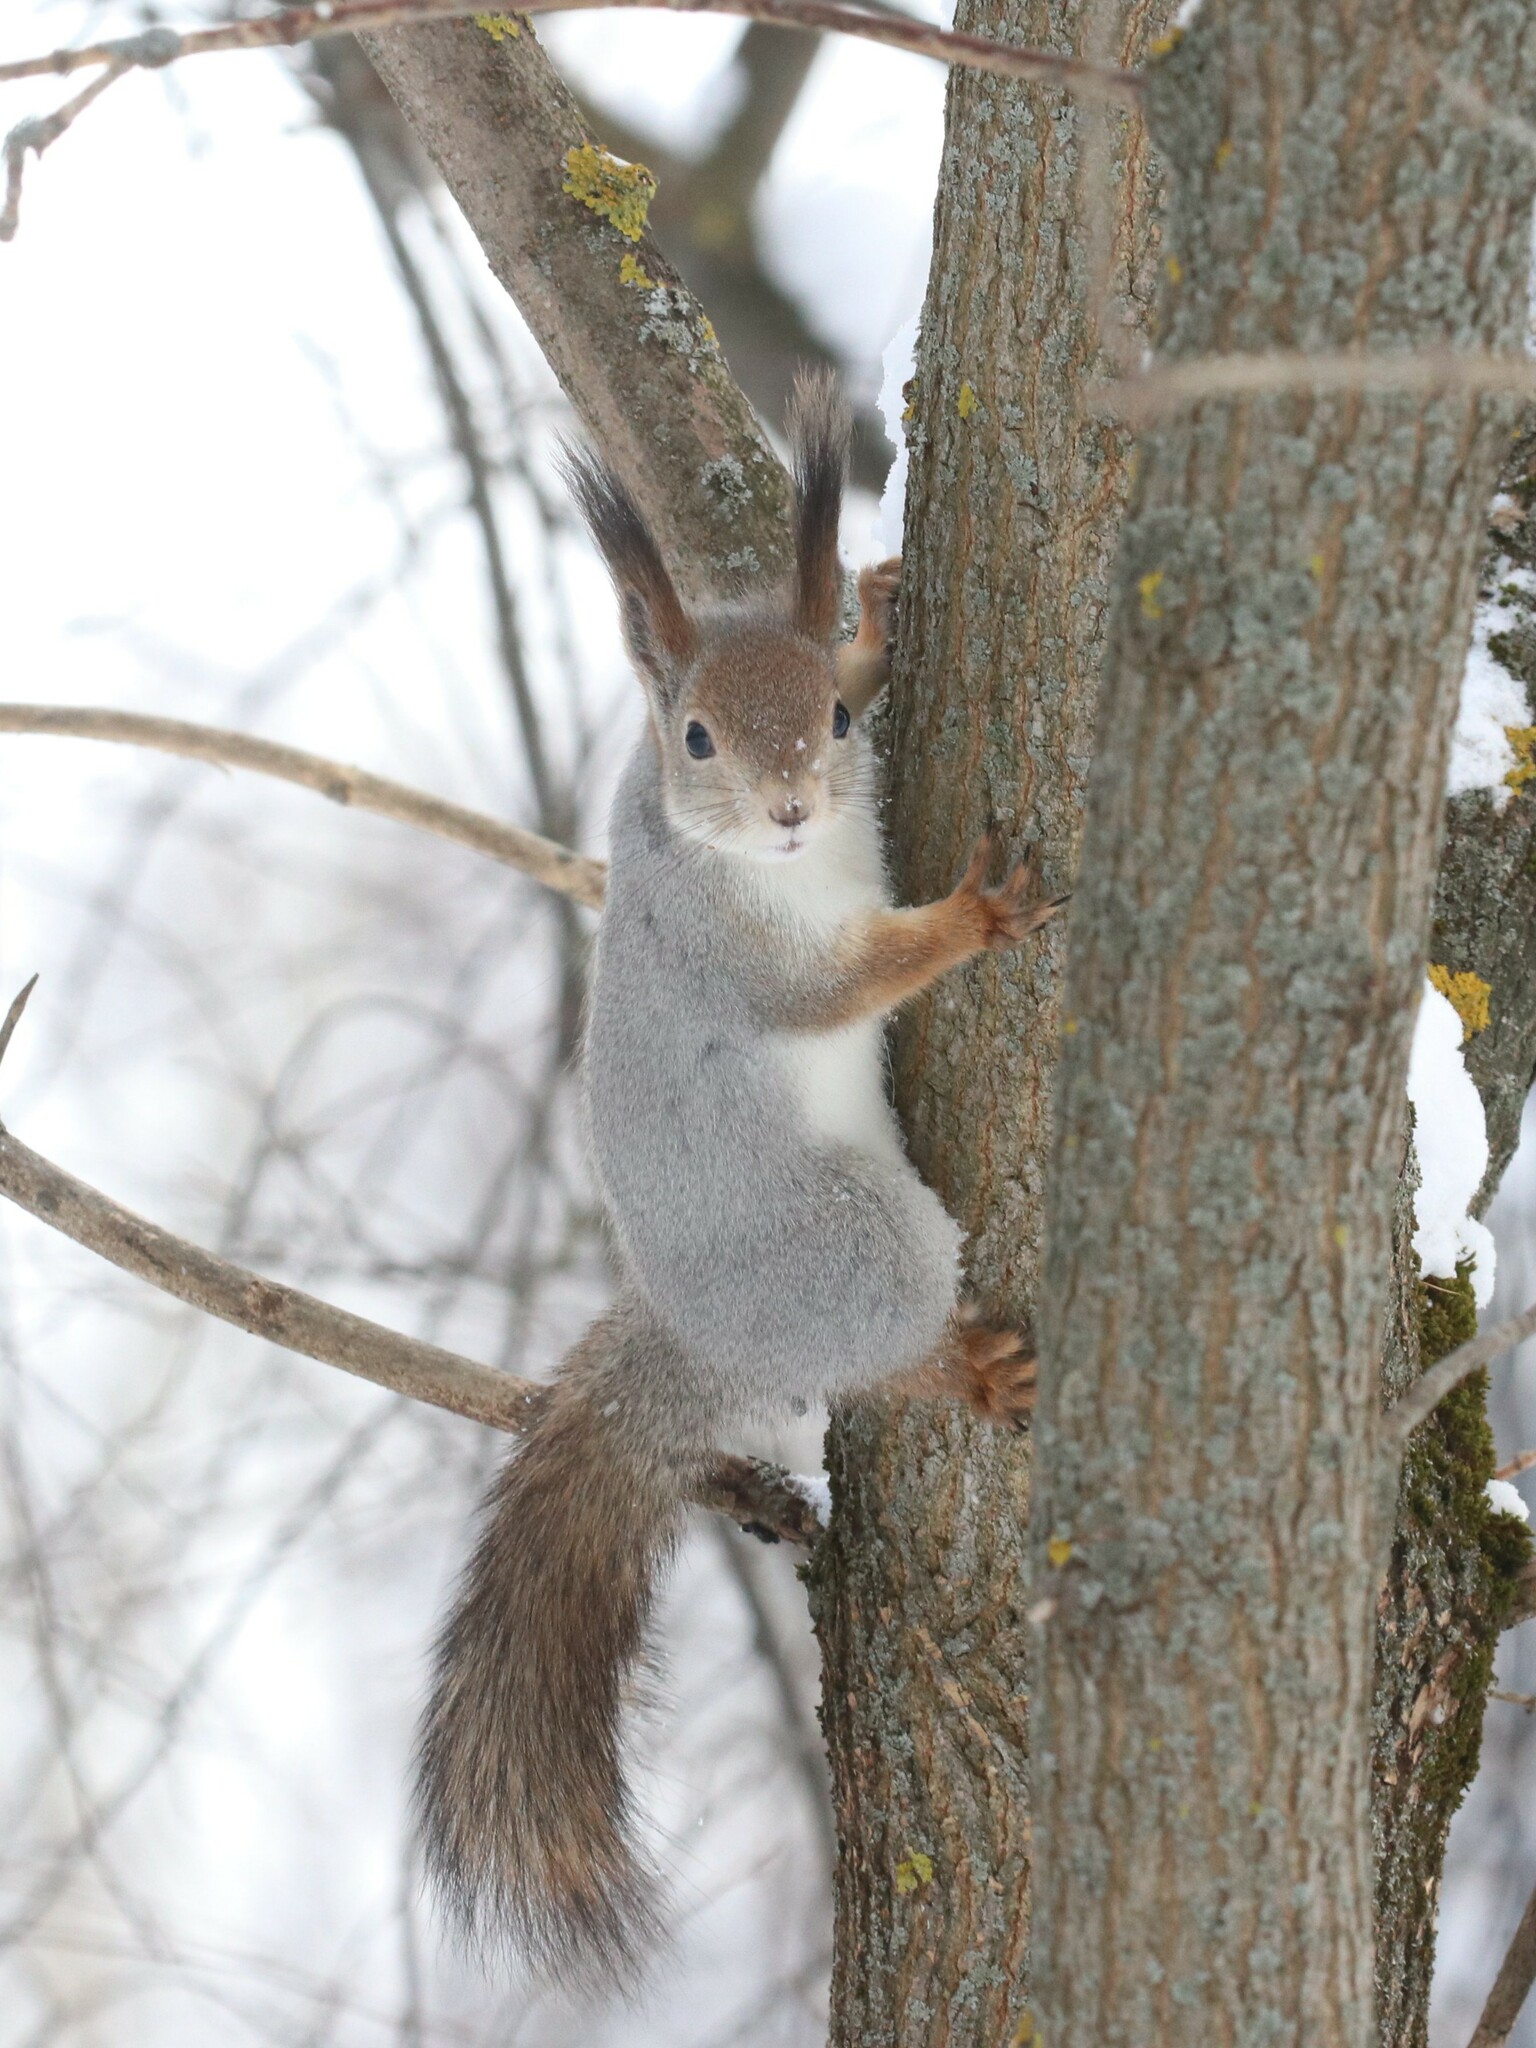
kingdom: Animalia
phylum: Chordata
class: Mammalia
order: Rodentia
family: Sciuridae
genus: Sciurus
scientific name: Sciurus vulgaris
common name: Eurasian red squirrel
